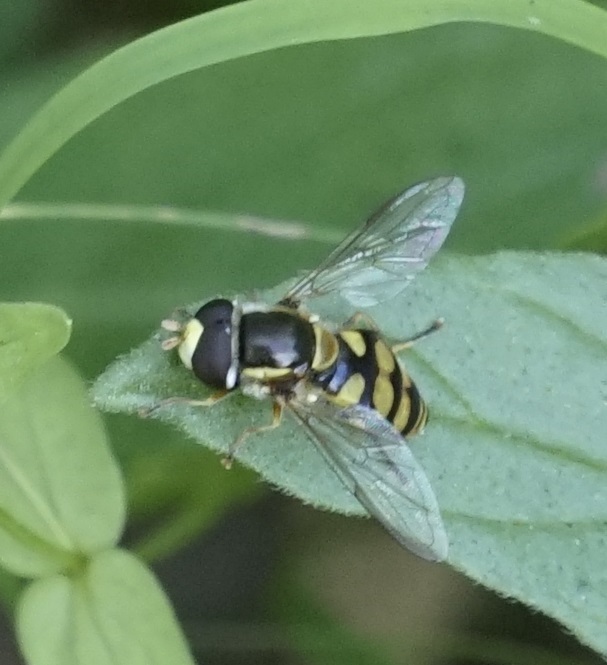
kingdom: Animalia
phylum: Arthropoda
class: Insecta
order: Diptera
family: Syrphidae
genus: Simosyrphus
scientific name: Simosyrphus grandicornis
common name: Hoverfly
